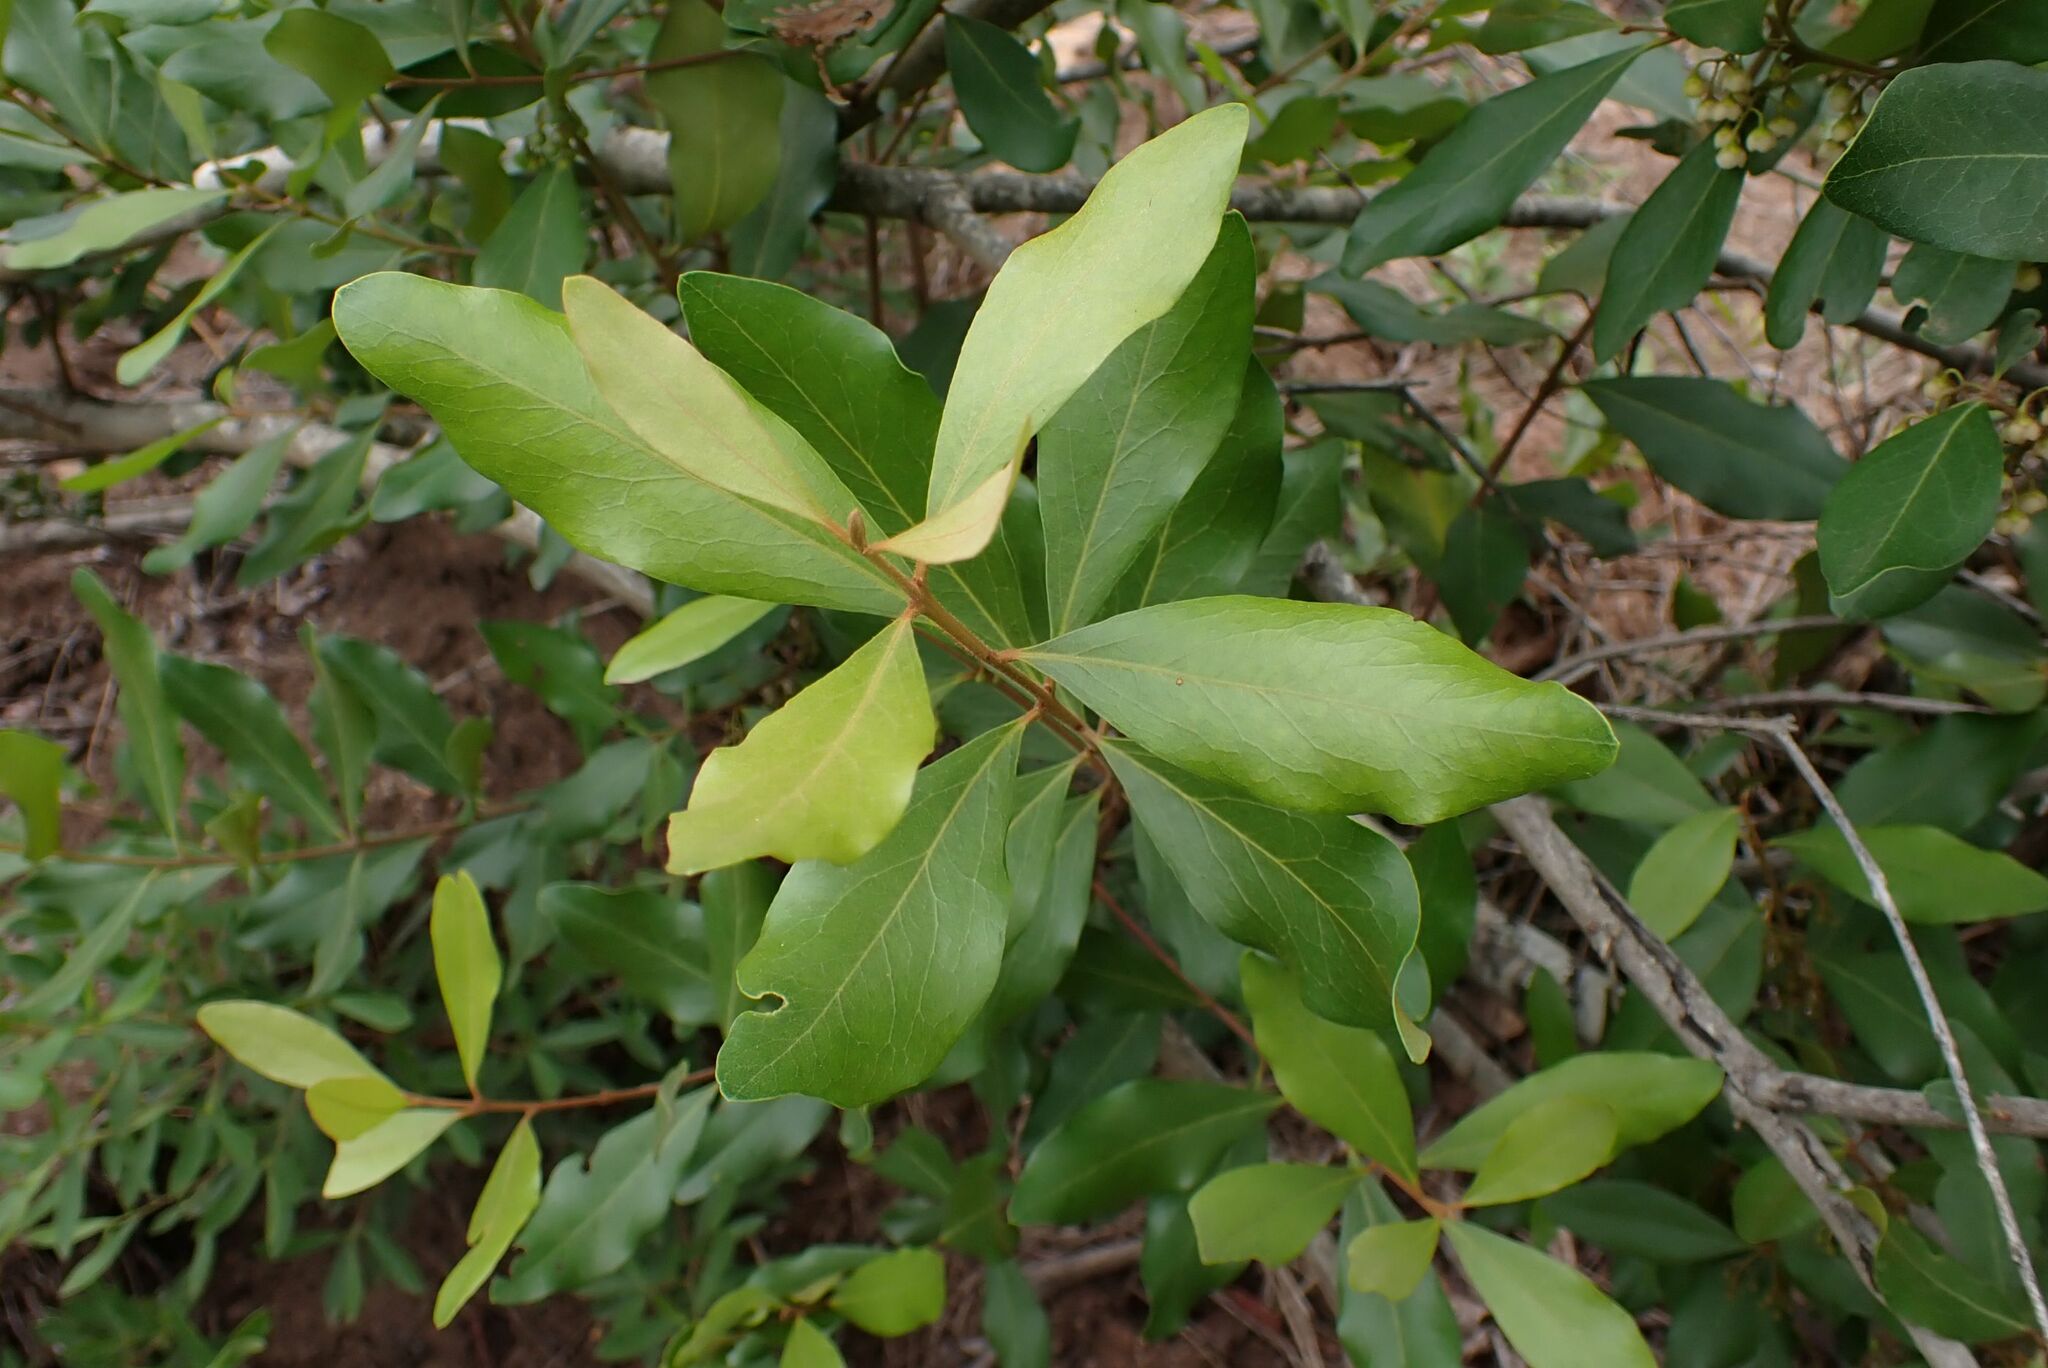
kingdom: Plantae
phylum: Tracheophyta
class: Magnoliopsida
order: Ericales
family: Ebenaceae
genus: Euclea
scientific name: Euclea crispa
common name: Blue guarri
